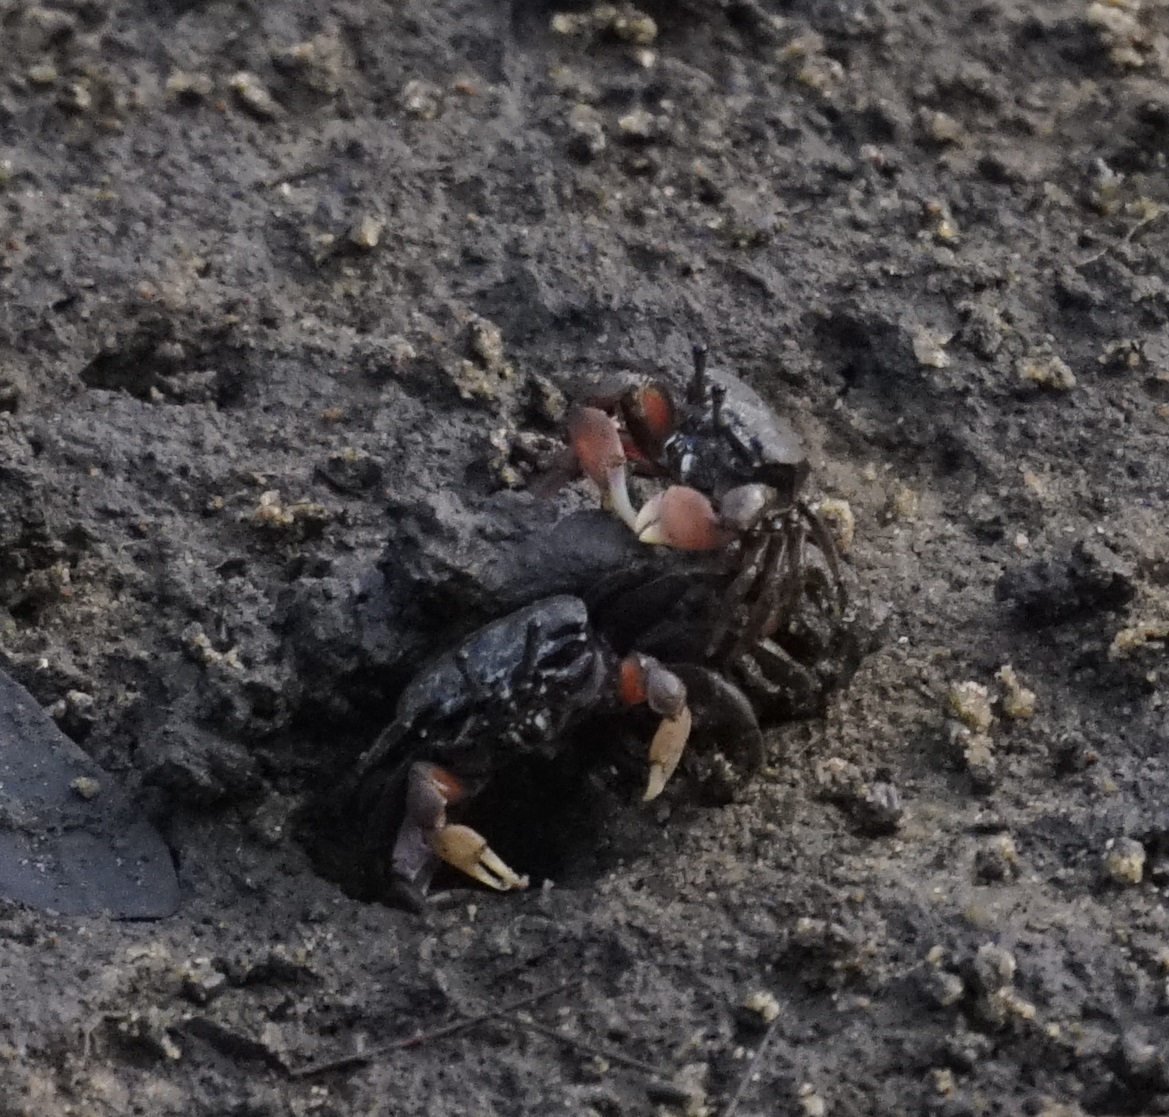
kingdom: Animalia
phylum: Arthropoda
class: Malacostraca
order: Decapoda
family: Heloeciidae
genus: Heloecius
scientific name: Heloecius cordiformis
